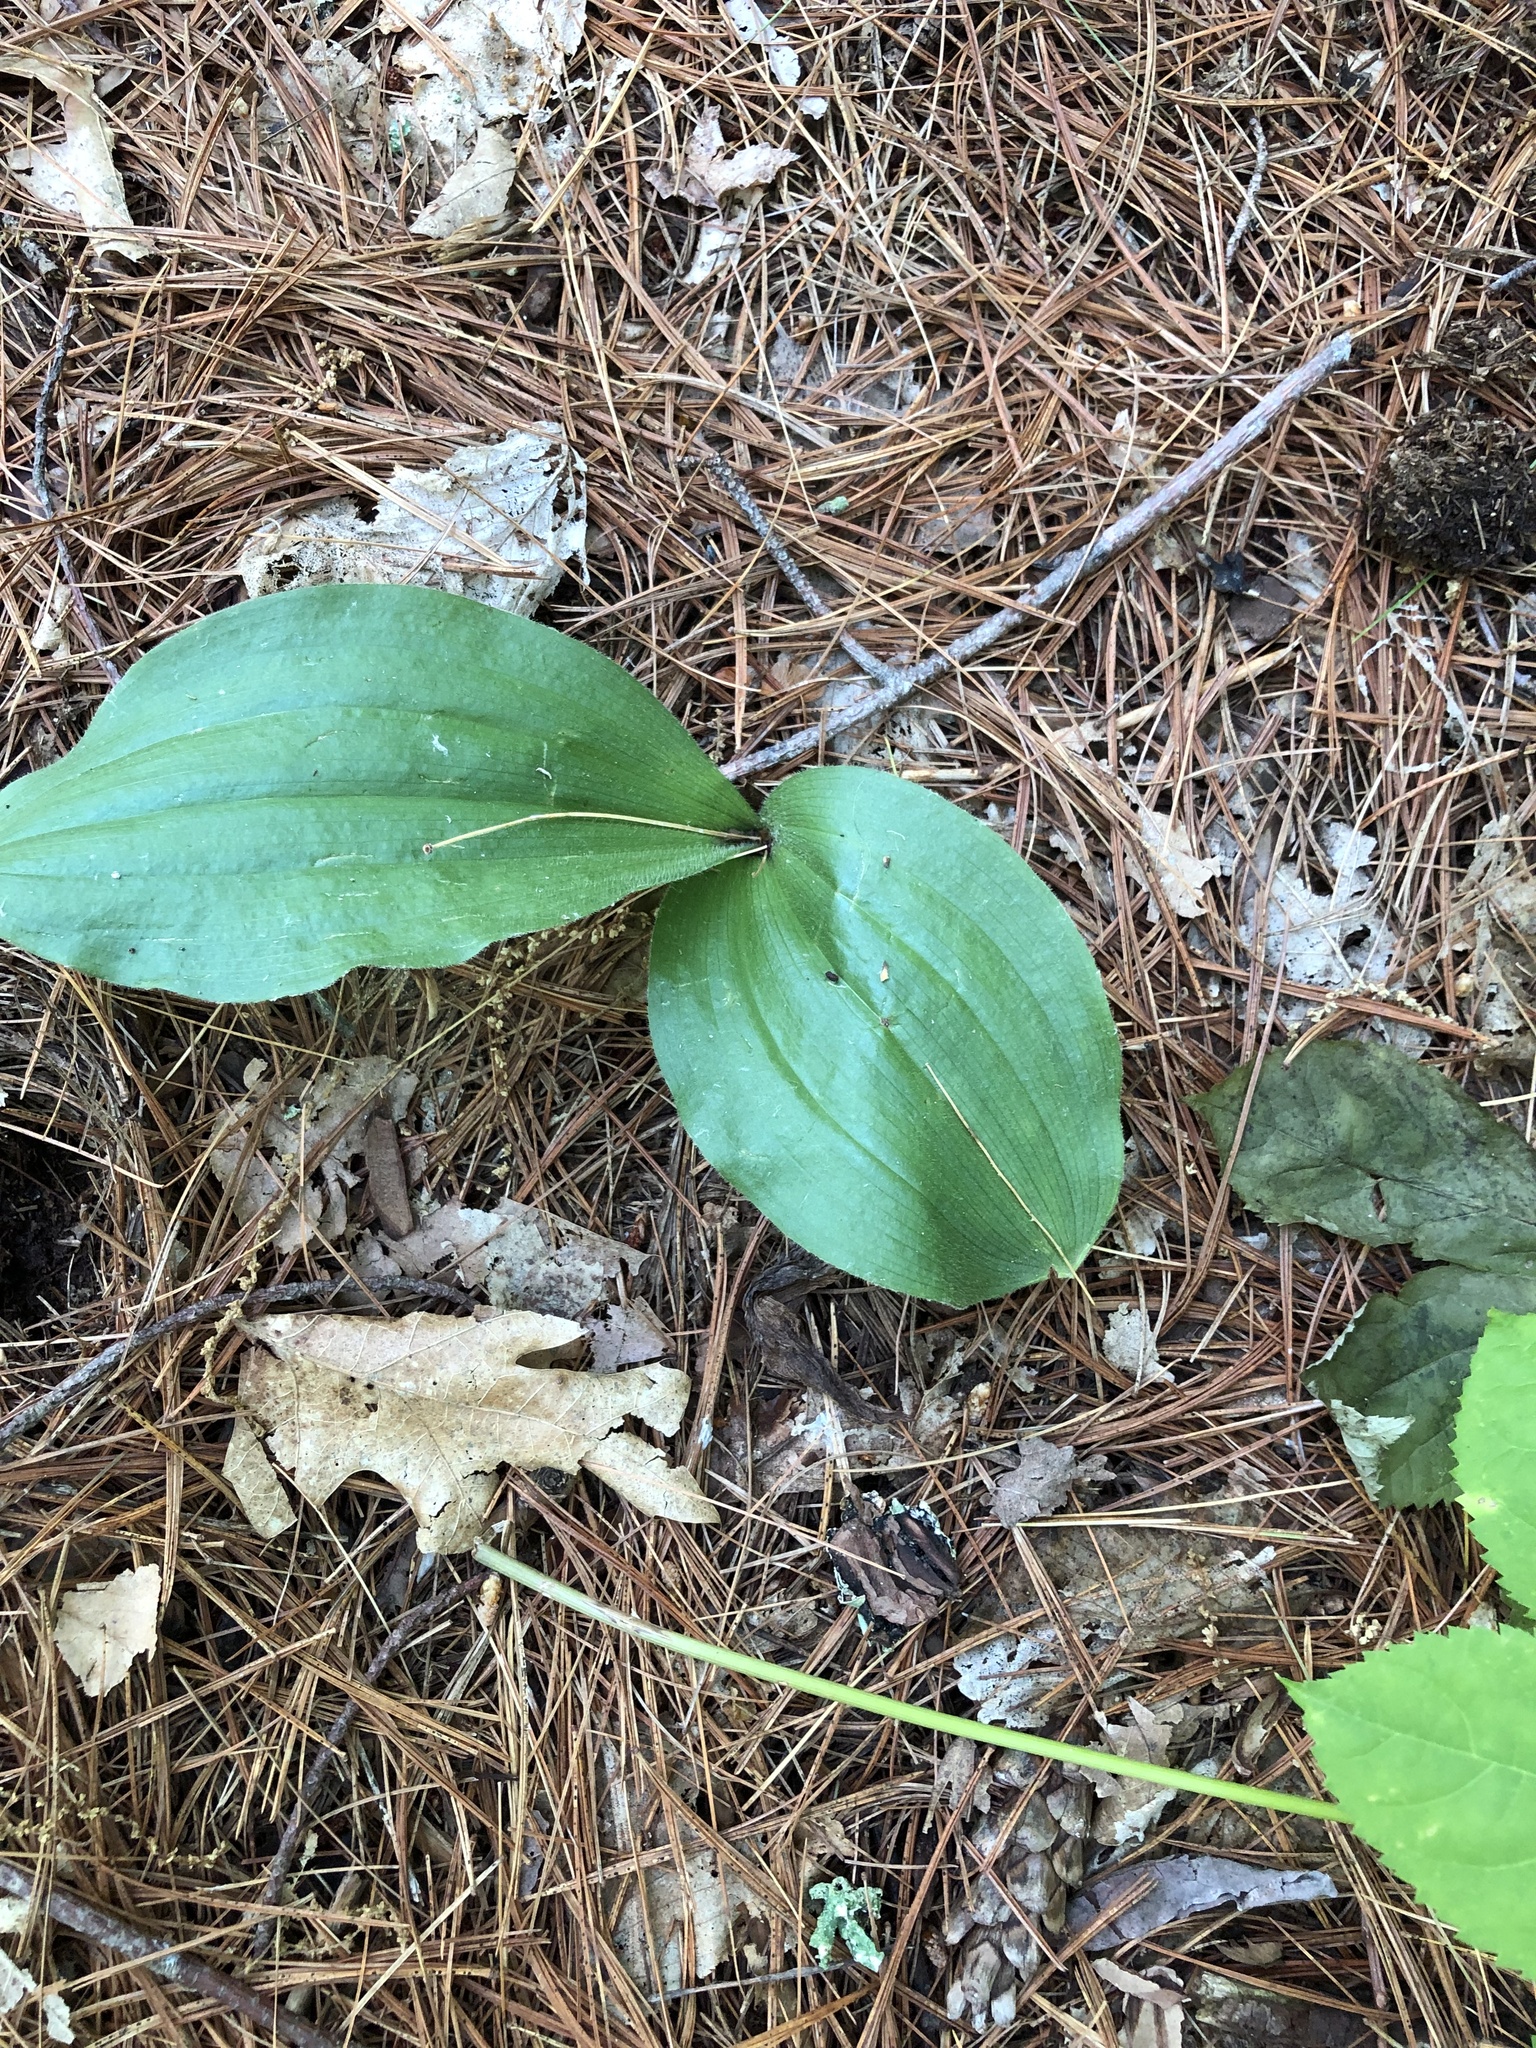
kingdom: Plantae
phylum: Tracheophyta
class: Liliopsida
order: Asparagales
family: Orchidaceae
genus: Cypripedium
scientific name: Cypripedium acaule
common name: Pink lady's-slipper
